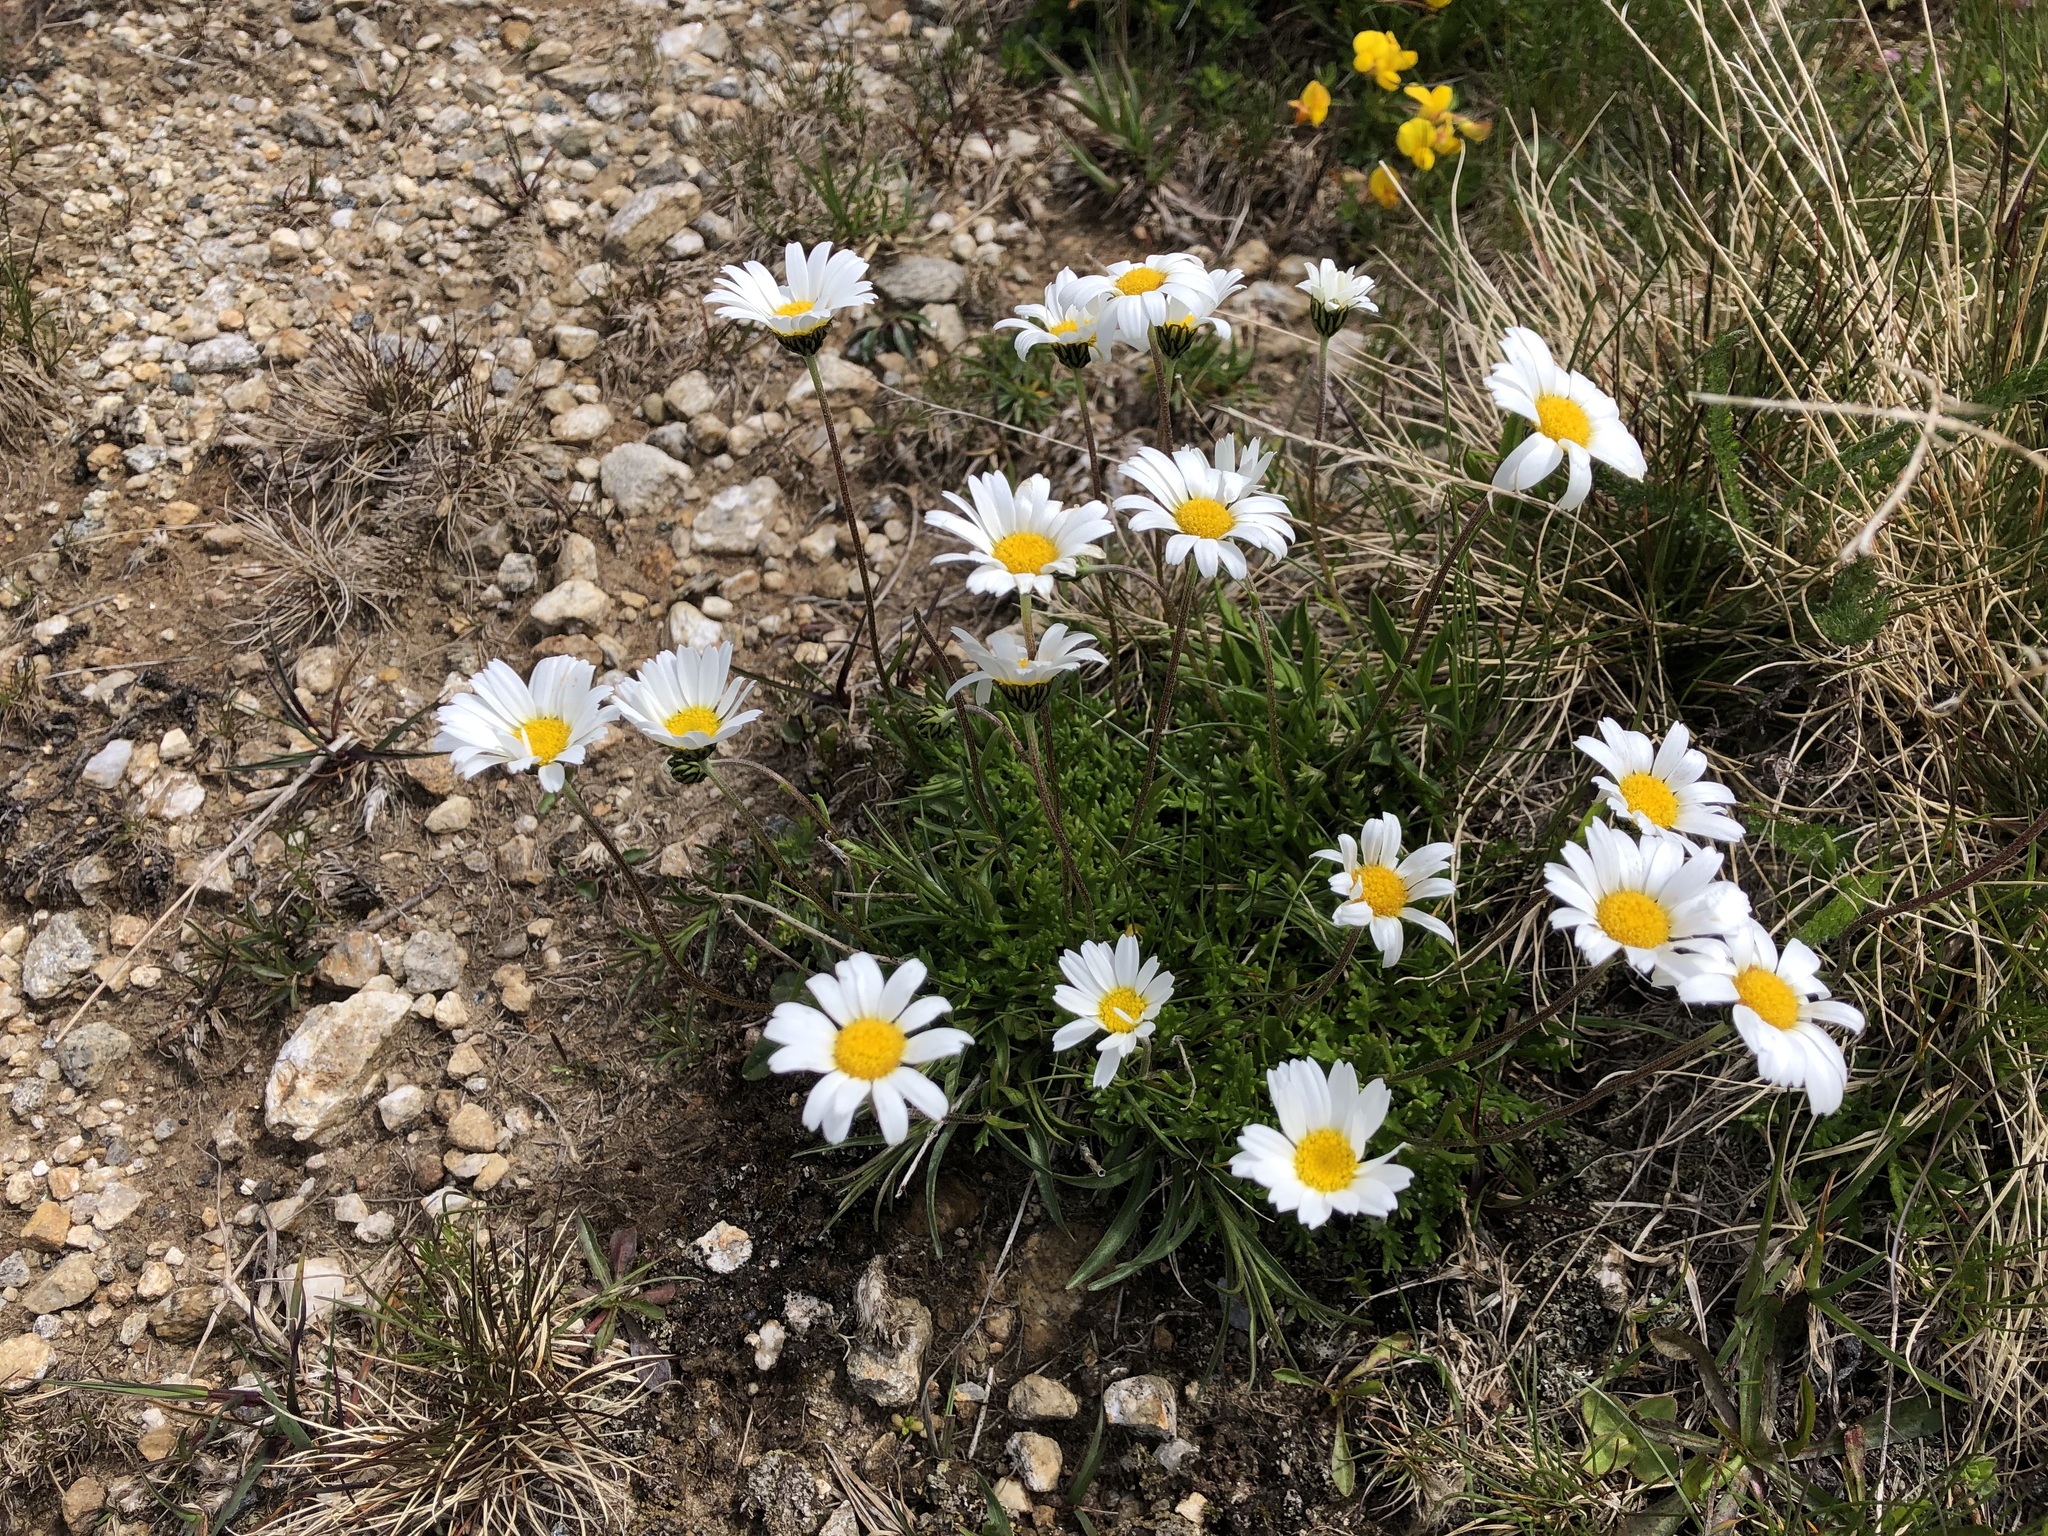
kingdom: Plantae
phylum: Tracheophyta
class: Magnoliopsida
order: Asterales
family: Asteraceae
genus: Leucanthemopsis
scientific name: Leucanthemopsis alpina
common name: Alpine moon daisy
